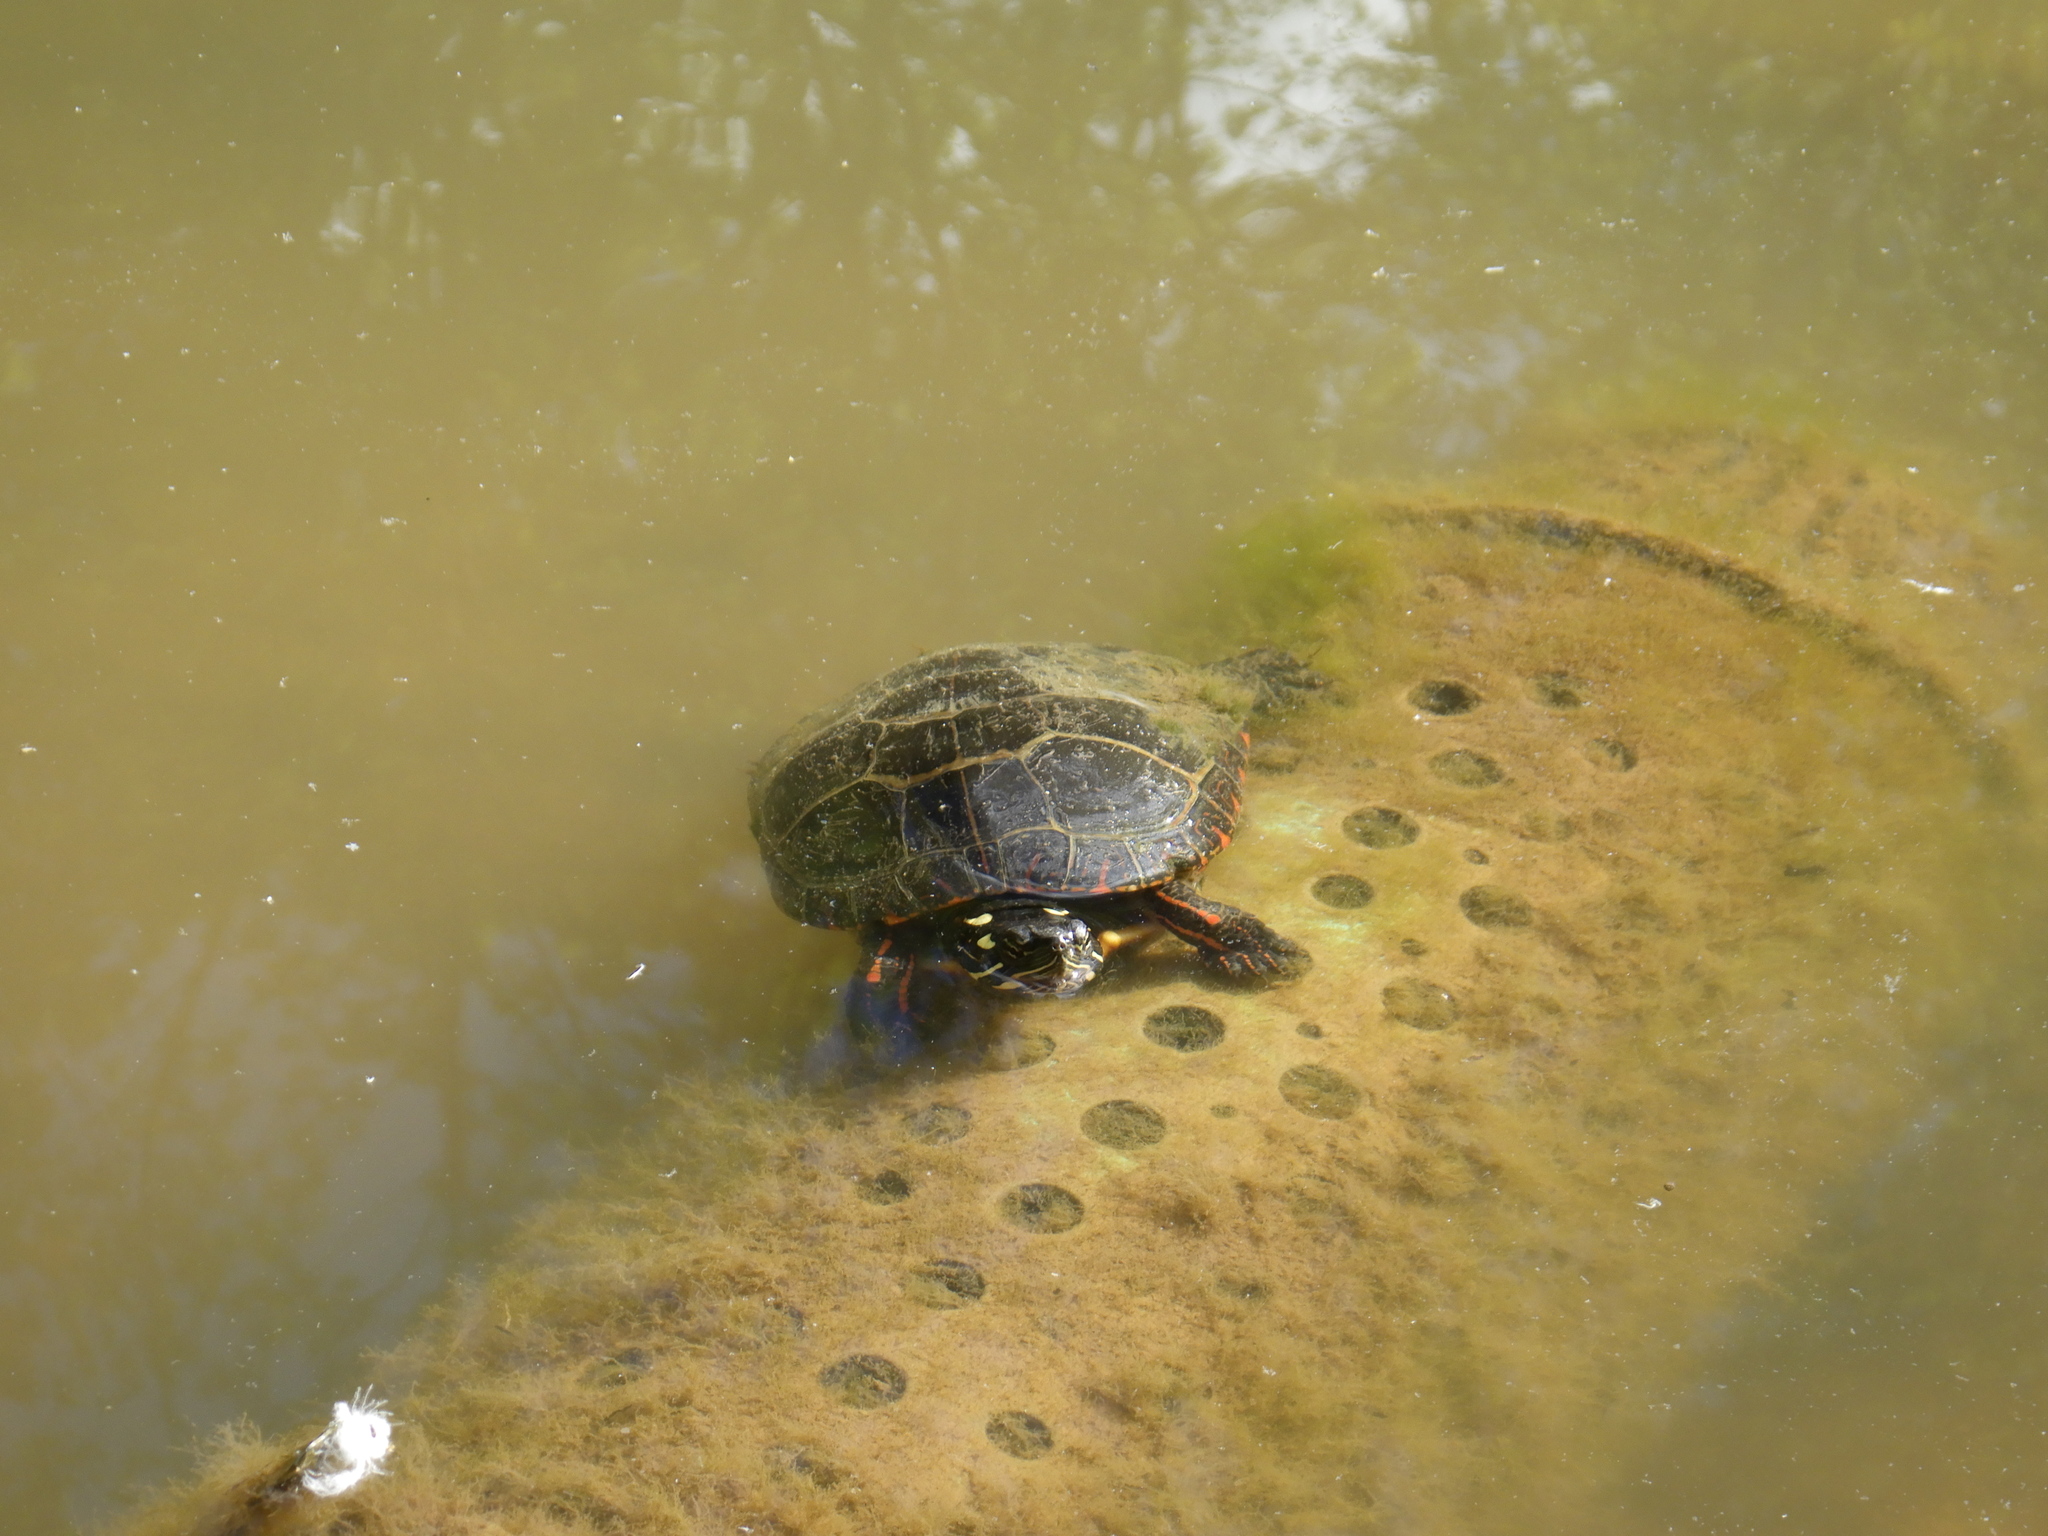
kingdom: Animalia
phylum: Chordata
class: Testudines
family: Emydidae
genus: Chrysemys
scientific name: Chrysemys picta
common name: Painted turtle
